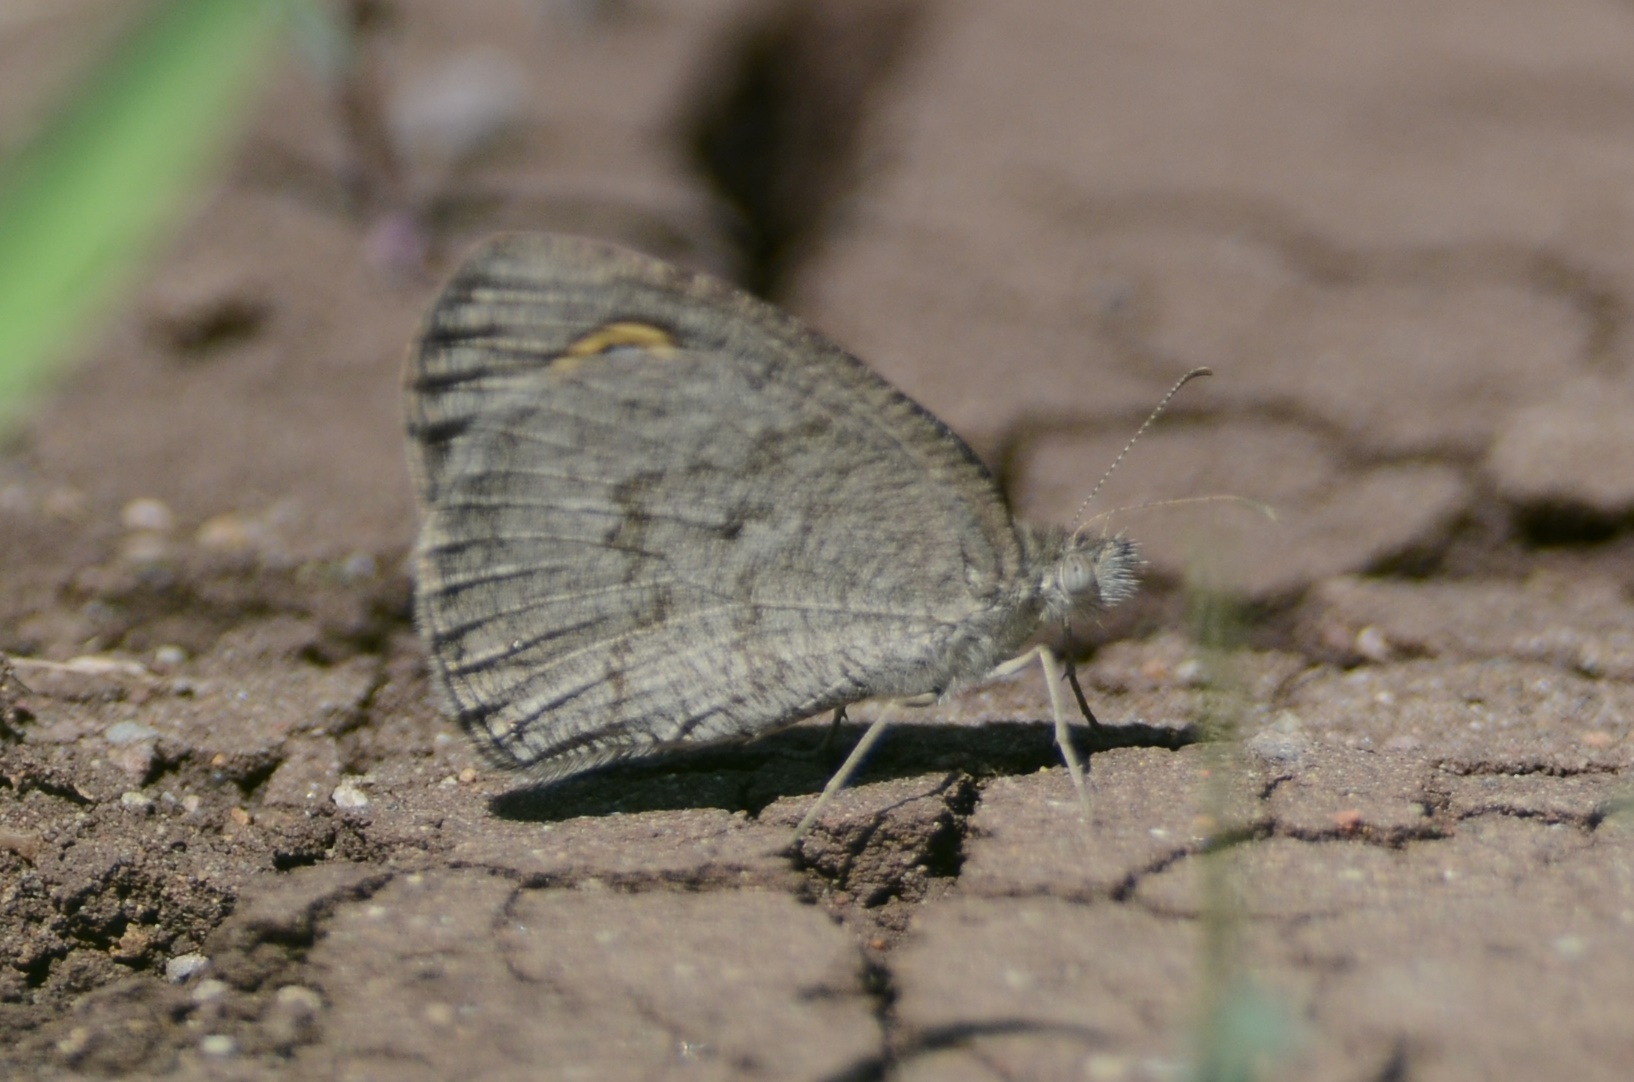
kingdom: Animalia
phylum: Arthropoda
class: Insecta
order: Lepidoptera
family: Nymphalidae
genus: Ypthima
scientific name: Ypthima asterope
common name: African ringlet
